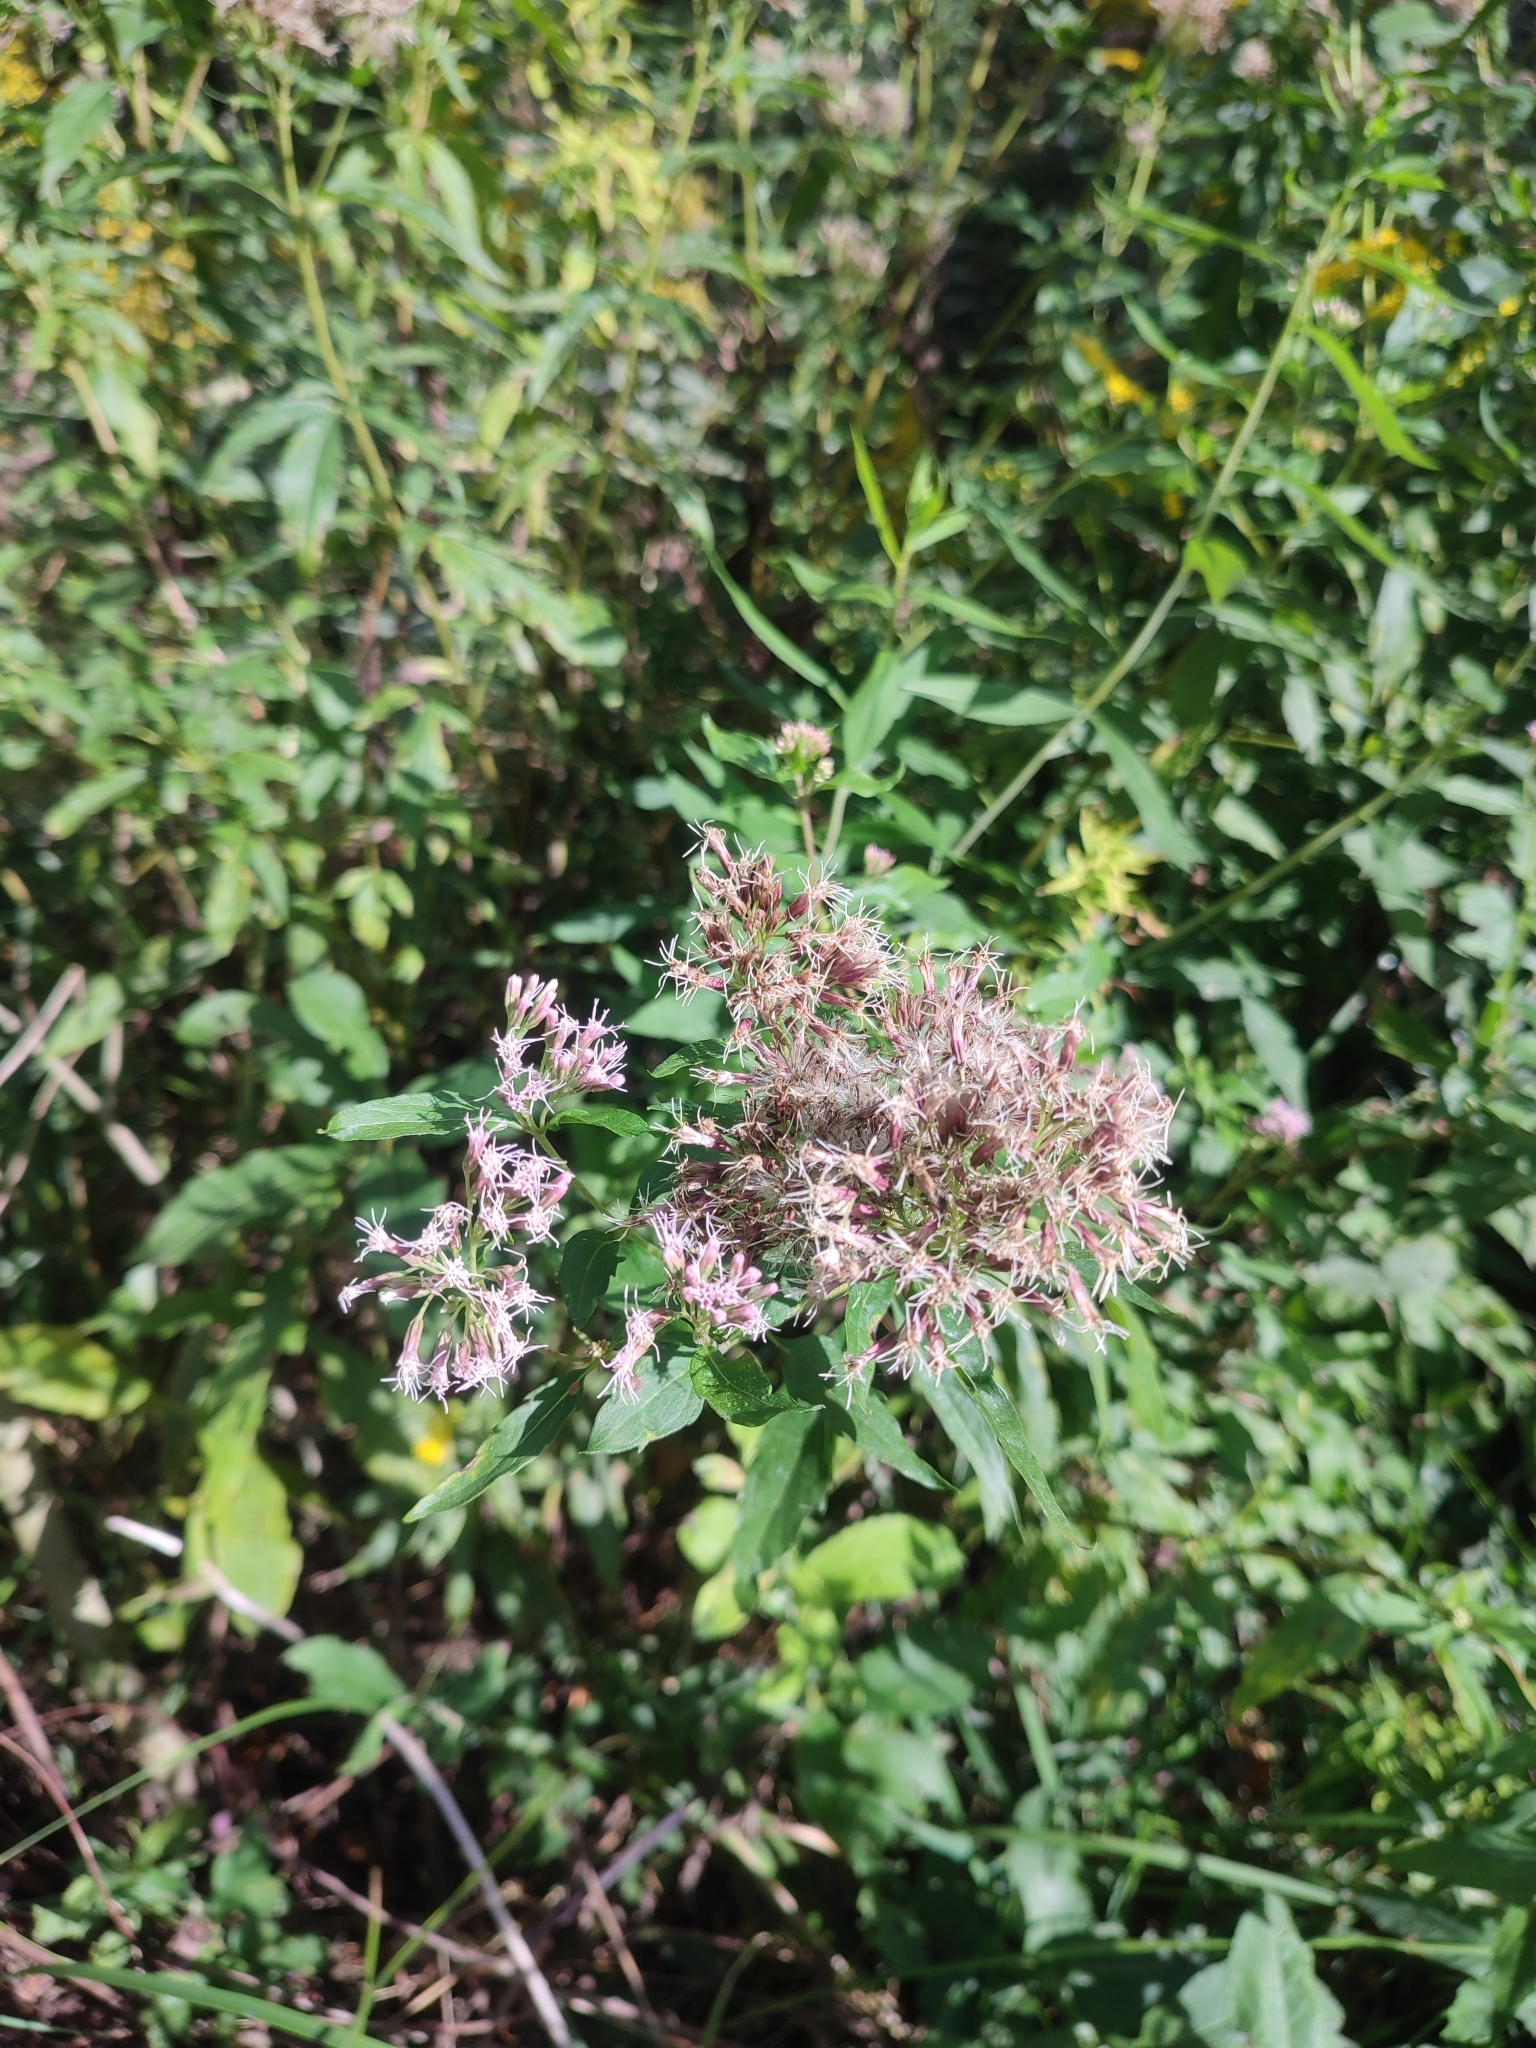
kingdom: Plantae
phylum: Tracheophyta
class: Magnoliopsida
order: Asterales
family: Asteraceae
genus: Eupatorium
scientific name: Eupatorium cannabinum
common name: Hemp-agrimony
